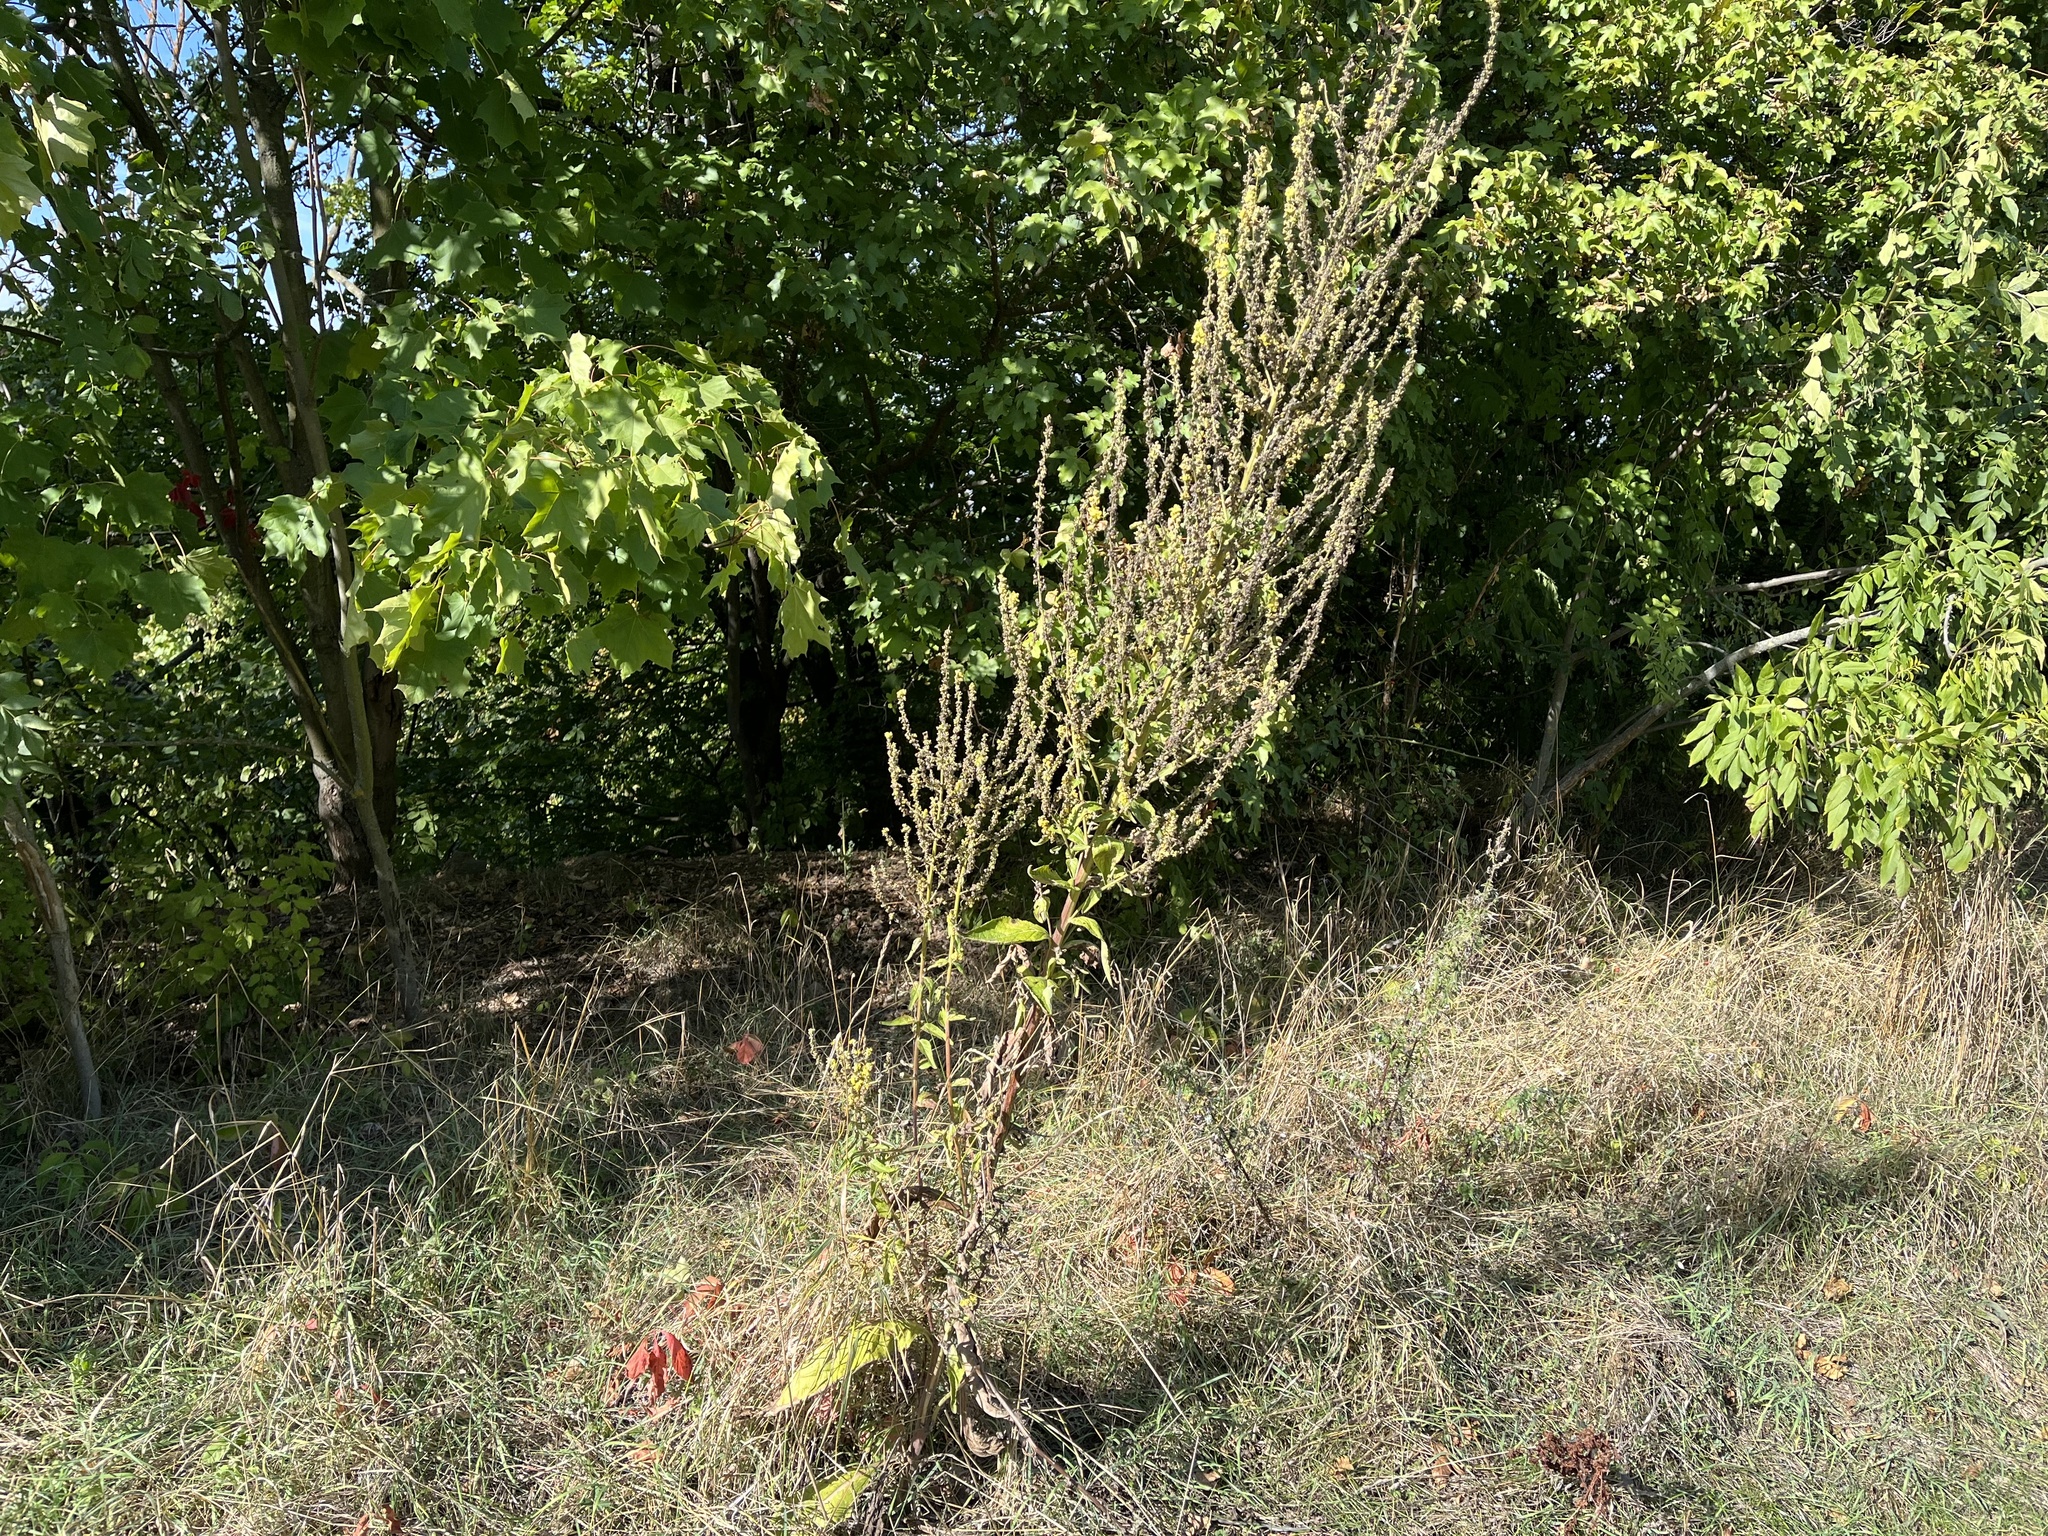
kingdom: Plantae
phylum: Tracheophyta
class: Magnoliopsida
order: Lamiales
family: Scrophulariaceae
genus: Verbascum
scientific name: Verbascum lychnitis
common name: White mullein
